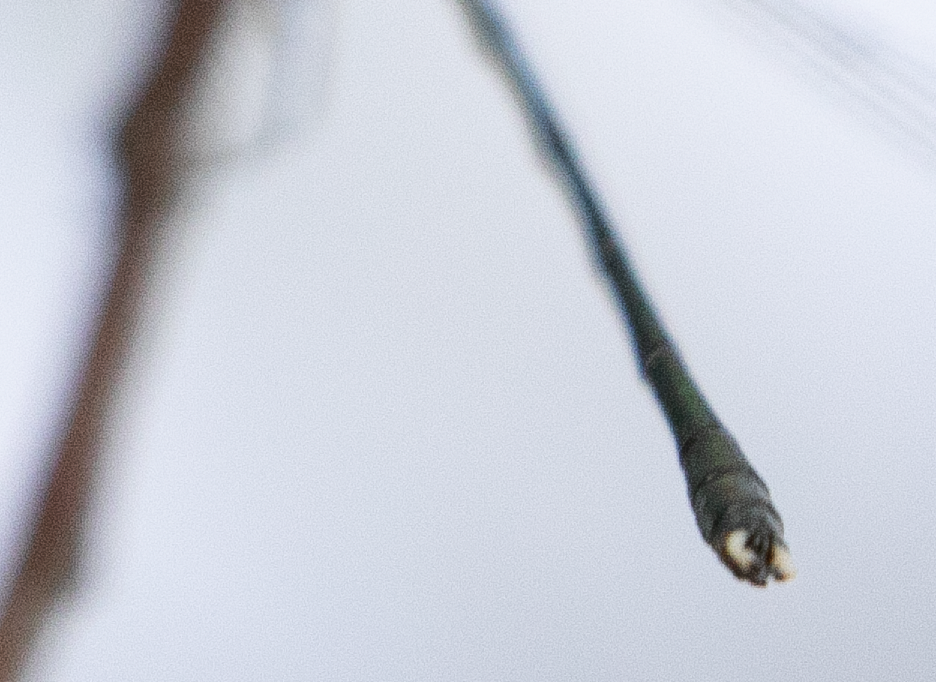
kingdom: Animalia
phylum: Arthropoda
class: Insecta
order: Odonata
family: Lestidae
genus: Chalcolestes
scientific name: Chalcolestes parvidens
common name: Eastern willow spreadwing
